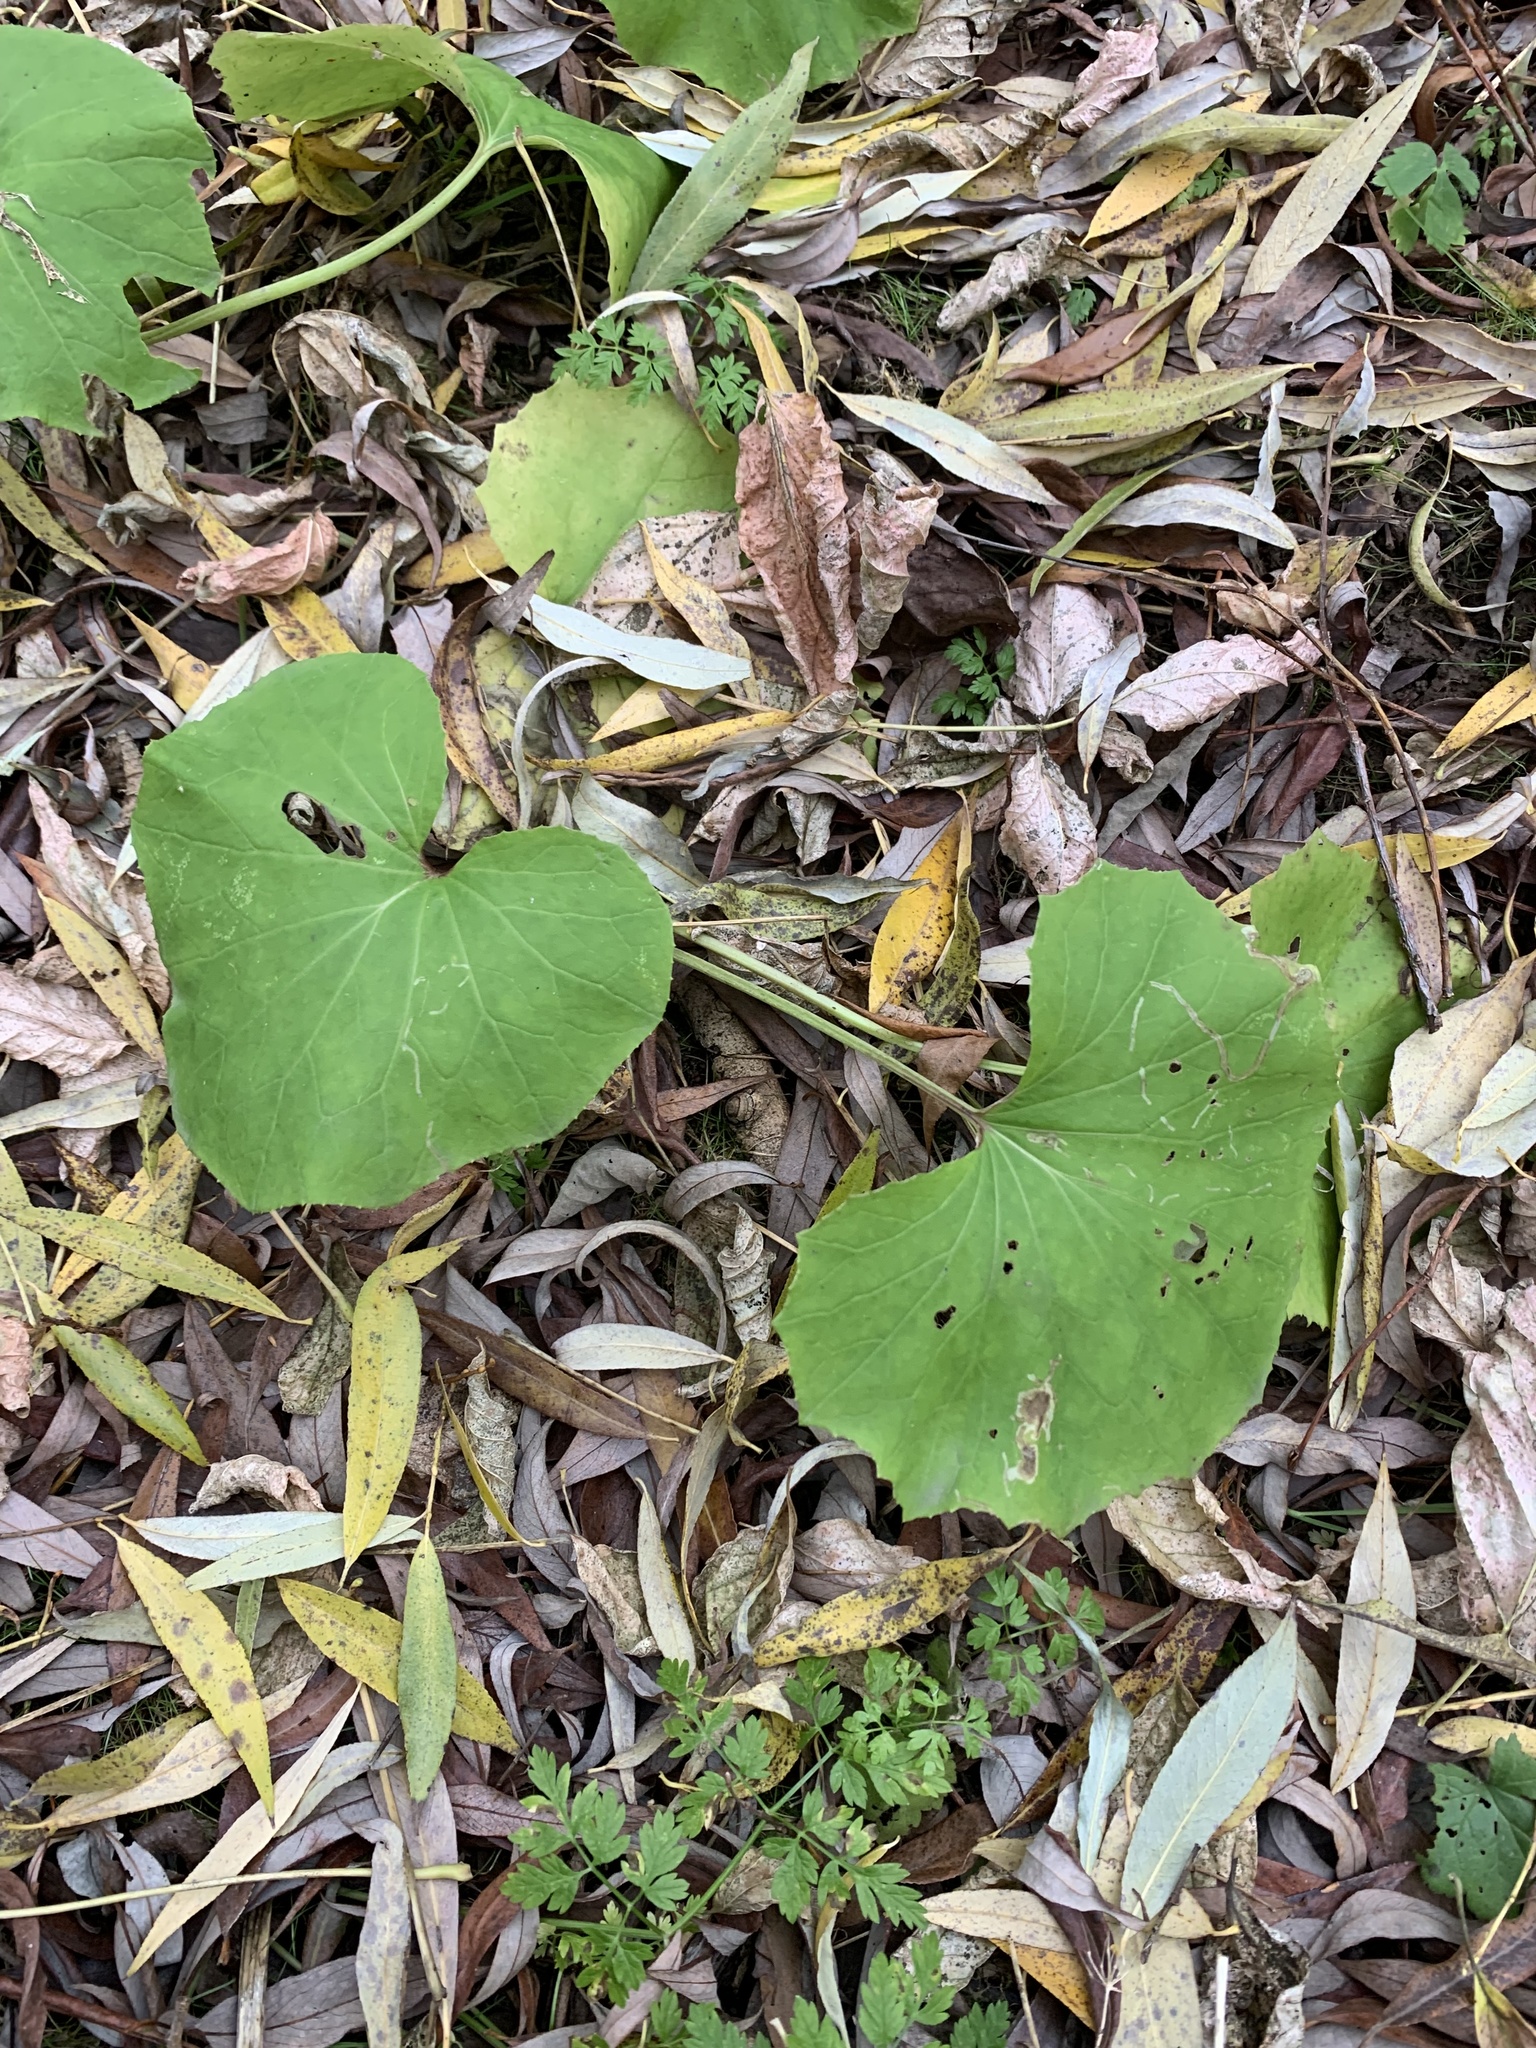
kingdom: Plantae
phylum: Tracheophyta
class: Magnoliopsida
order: Asterales
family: Asteraceae
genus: Tussilago
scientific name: Tussilago farfara
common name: Coltsfoot
